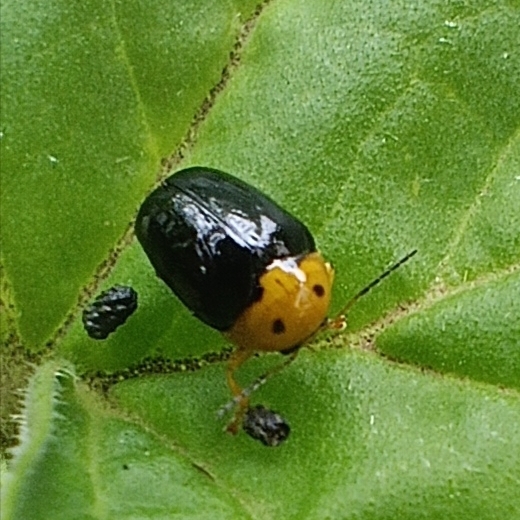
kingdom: Animalia
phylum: Arthropoda
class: Insecta
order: Coleoptera
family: Chrysomelidae
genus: Cryptocephalus
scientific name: Cryptocephalus
